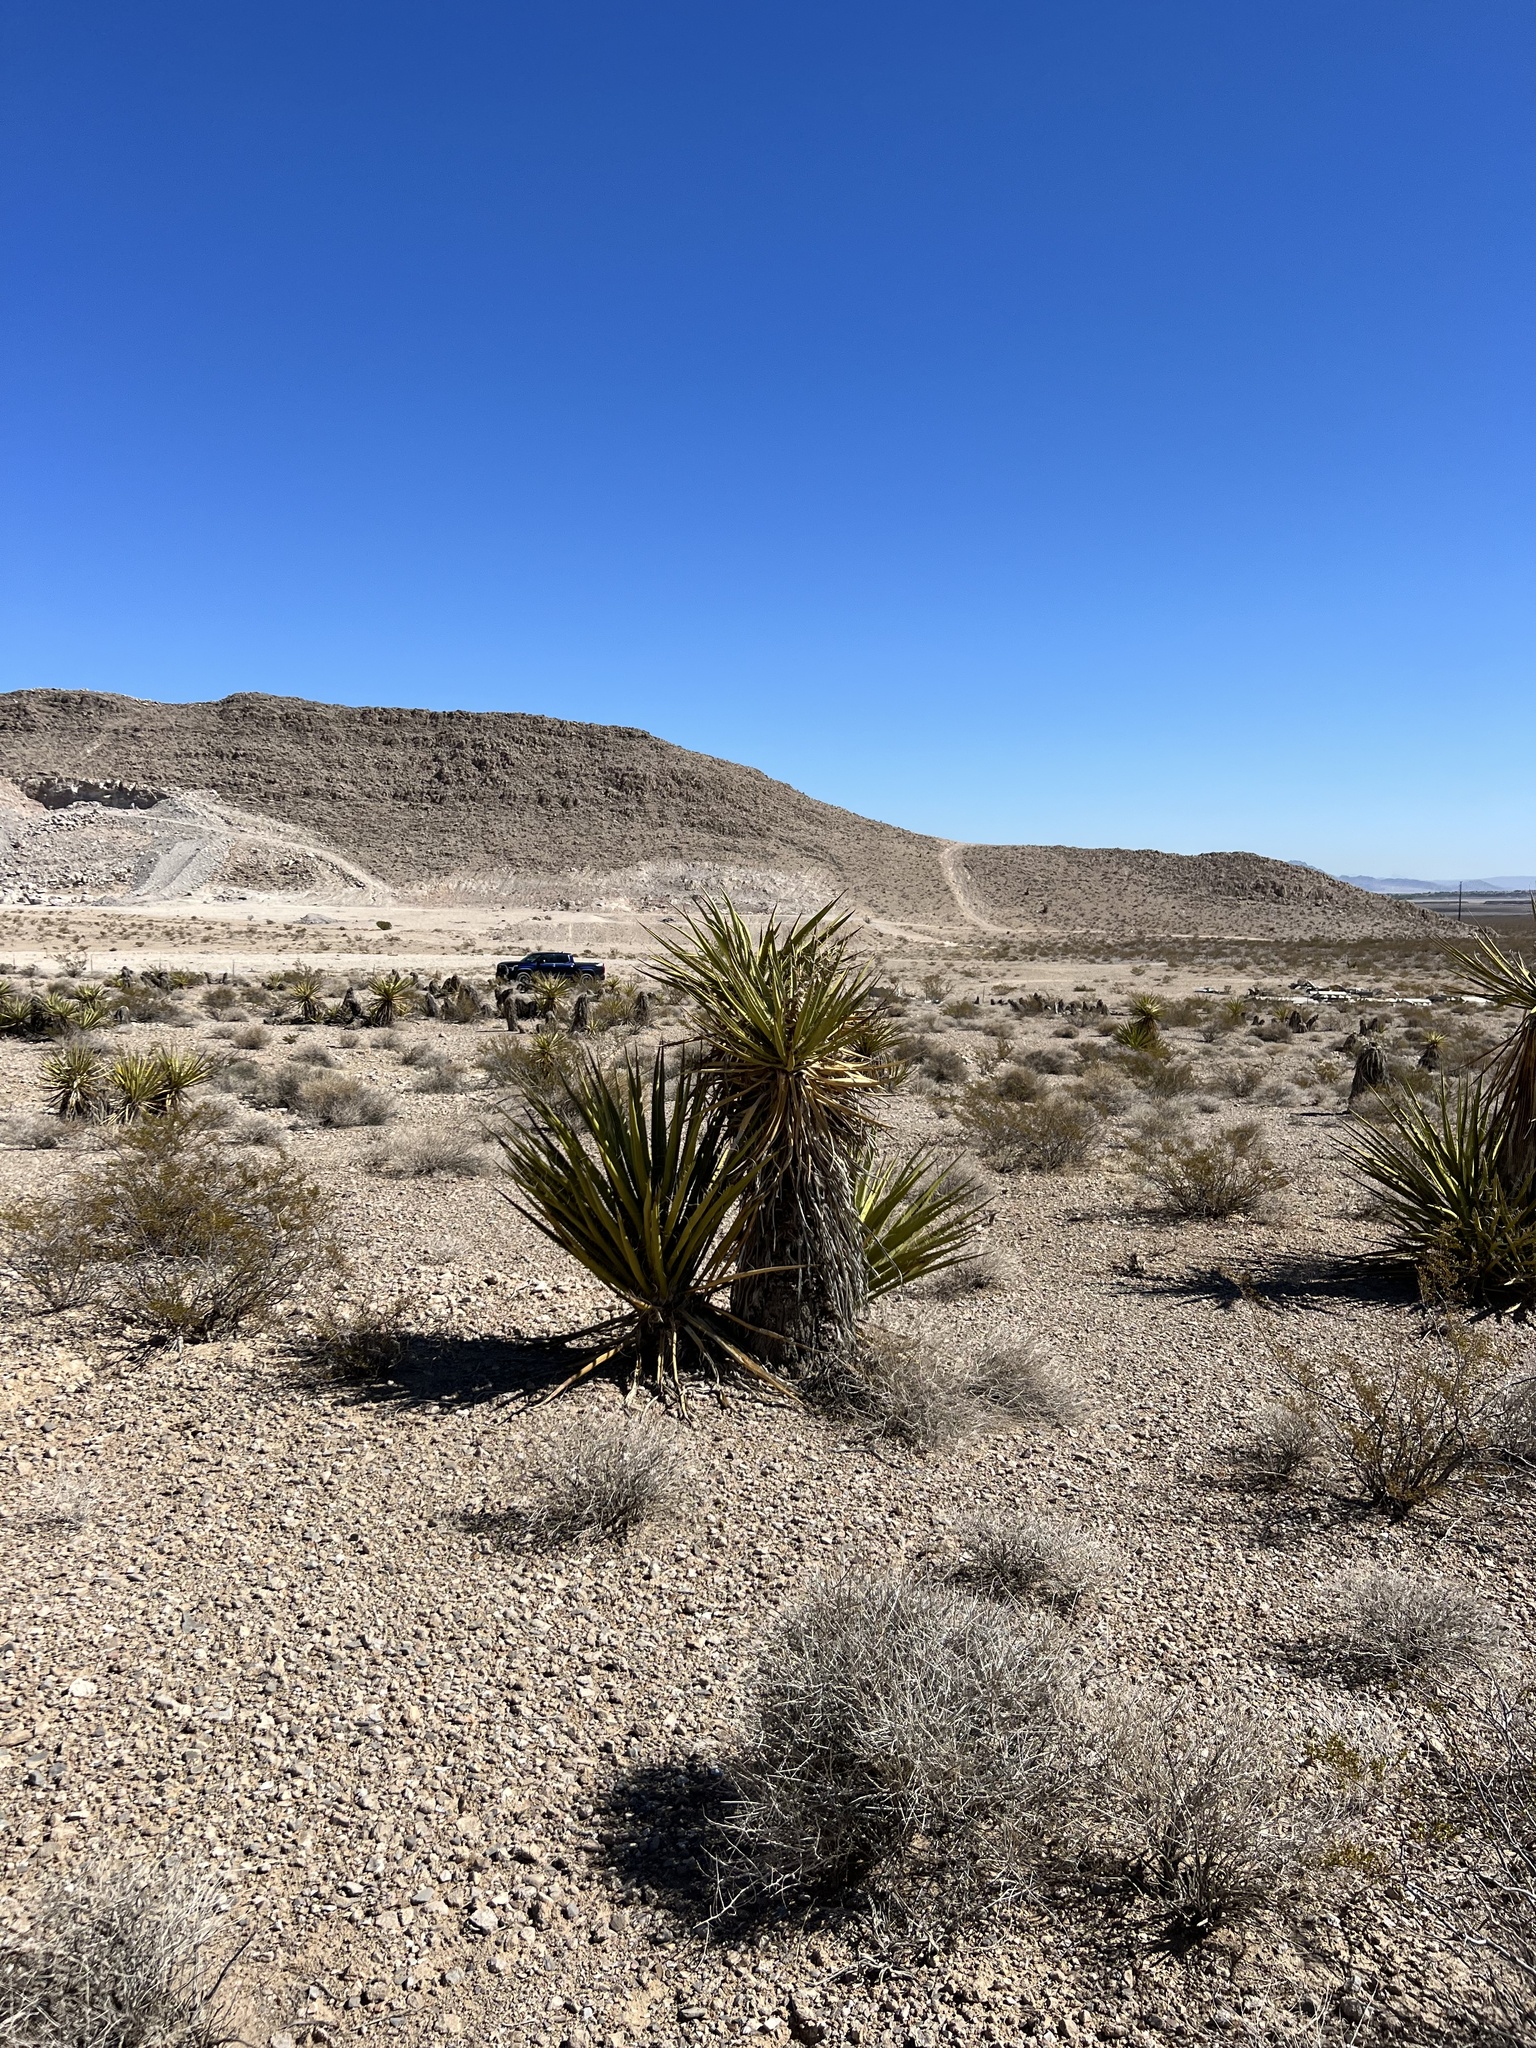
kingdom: Plantae
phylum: Tracheophyta
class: Liliopsida
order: Asparagales
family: Asparagaceae
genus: Yucca
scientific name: Yucca schidigera
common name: Mojave yucca
